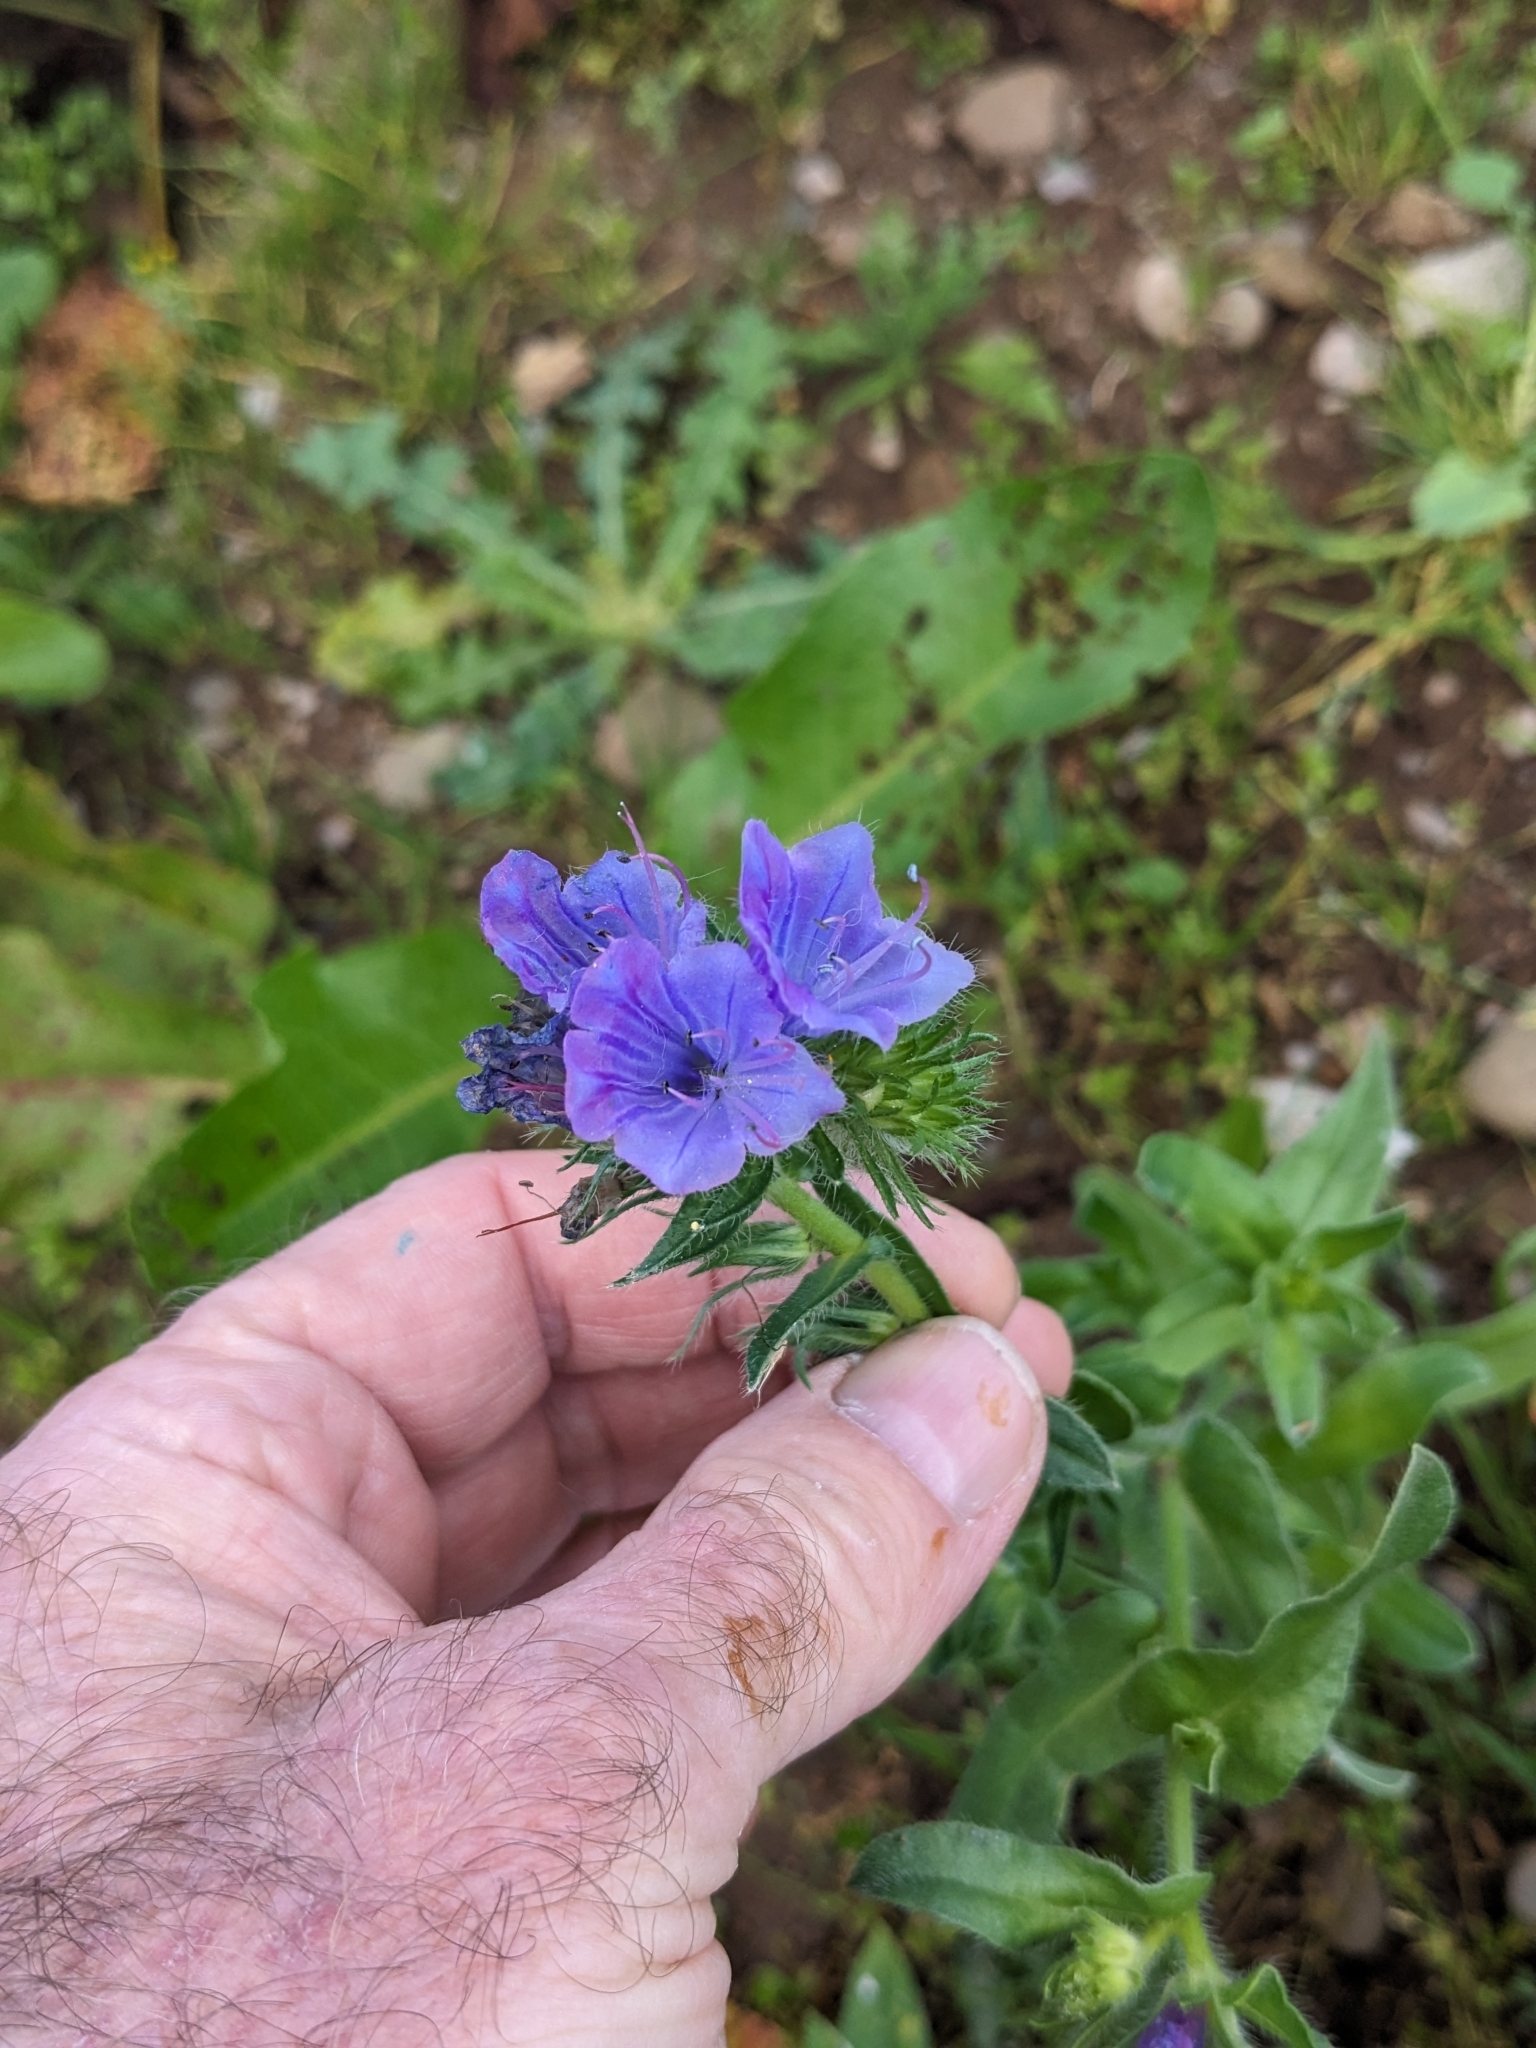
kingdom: Plantae
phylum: Tracheophyta
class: Magnoliopsida
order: Boraginales
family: Boraginaceae
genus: Echium
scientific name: Echium plantagineum
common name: Purple viper's-bugloss
